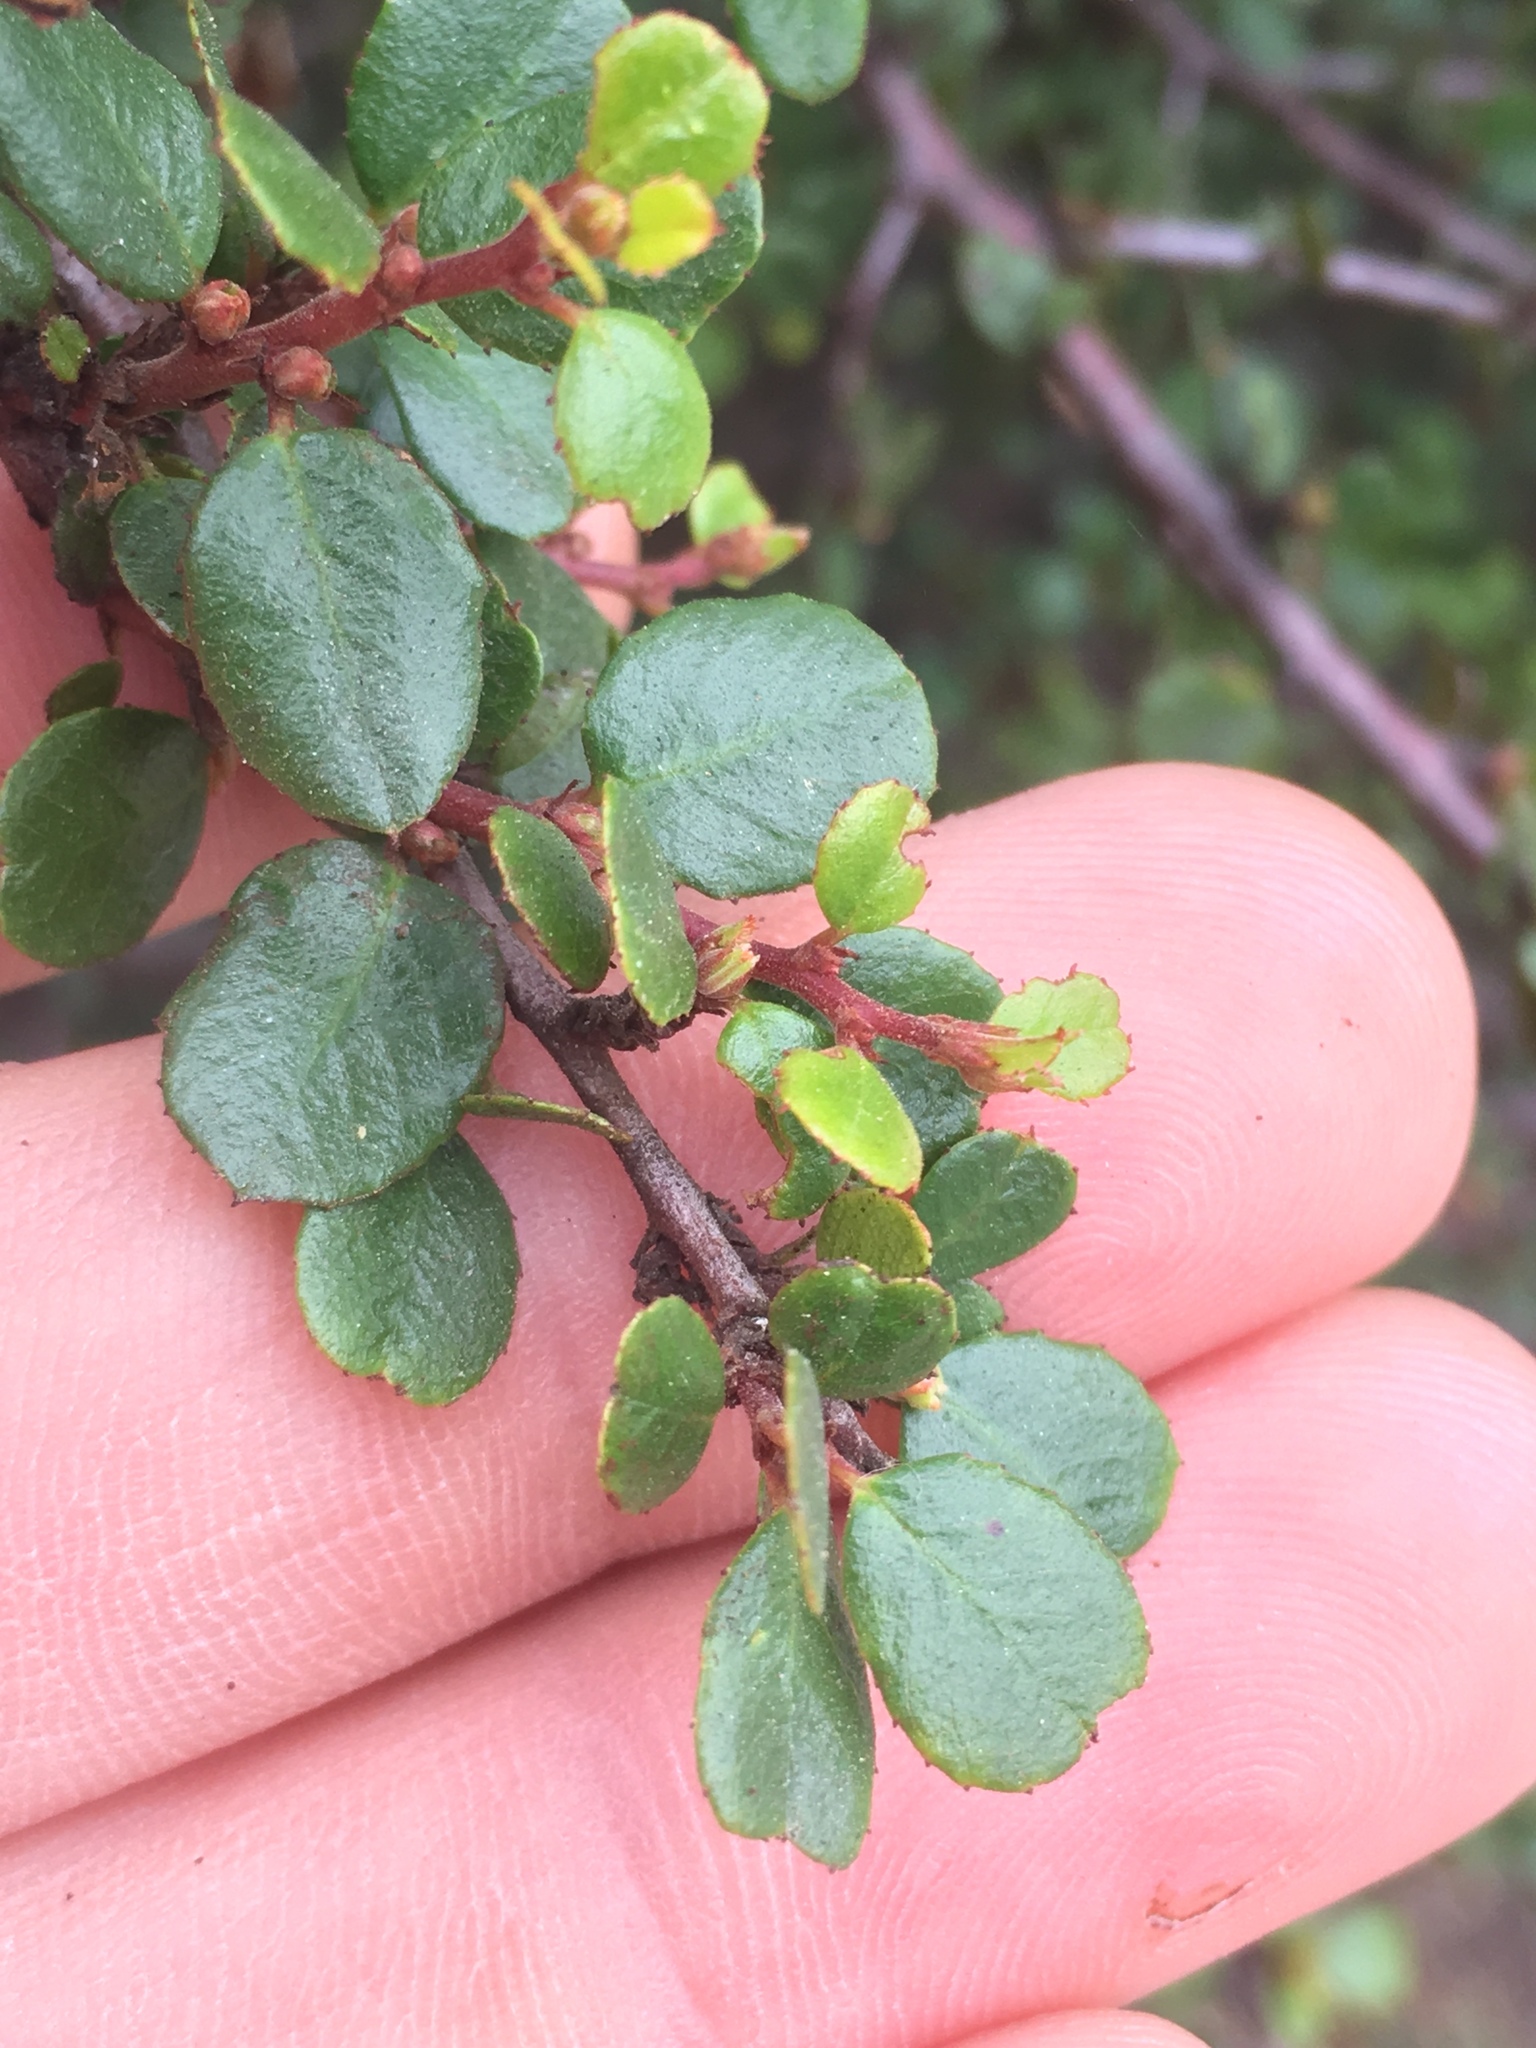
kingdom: Plantae
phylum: Tracheophyta
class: Magnoliopsida
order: Rosales
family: Rhamnaceae
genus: Endotropis
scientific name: Endotropis crocea
